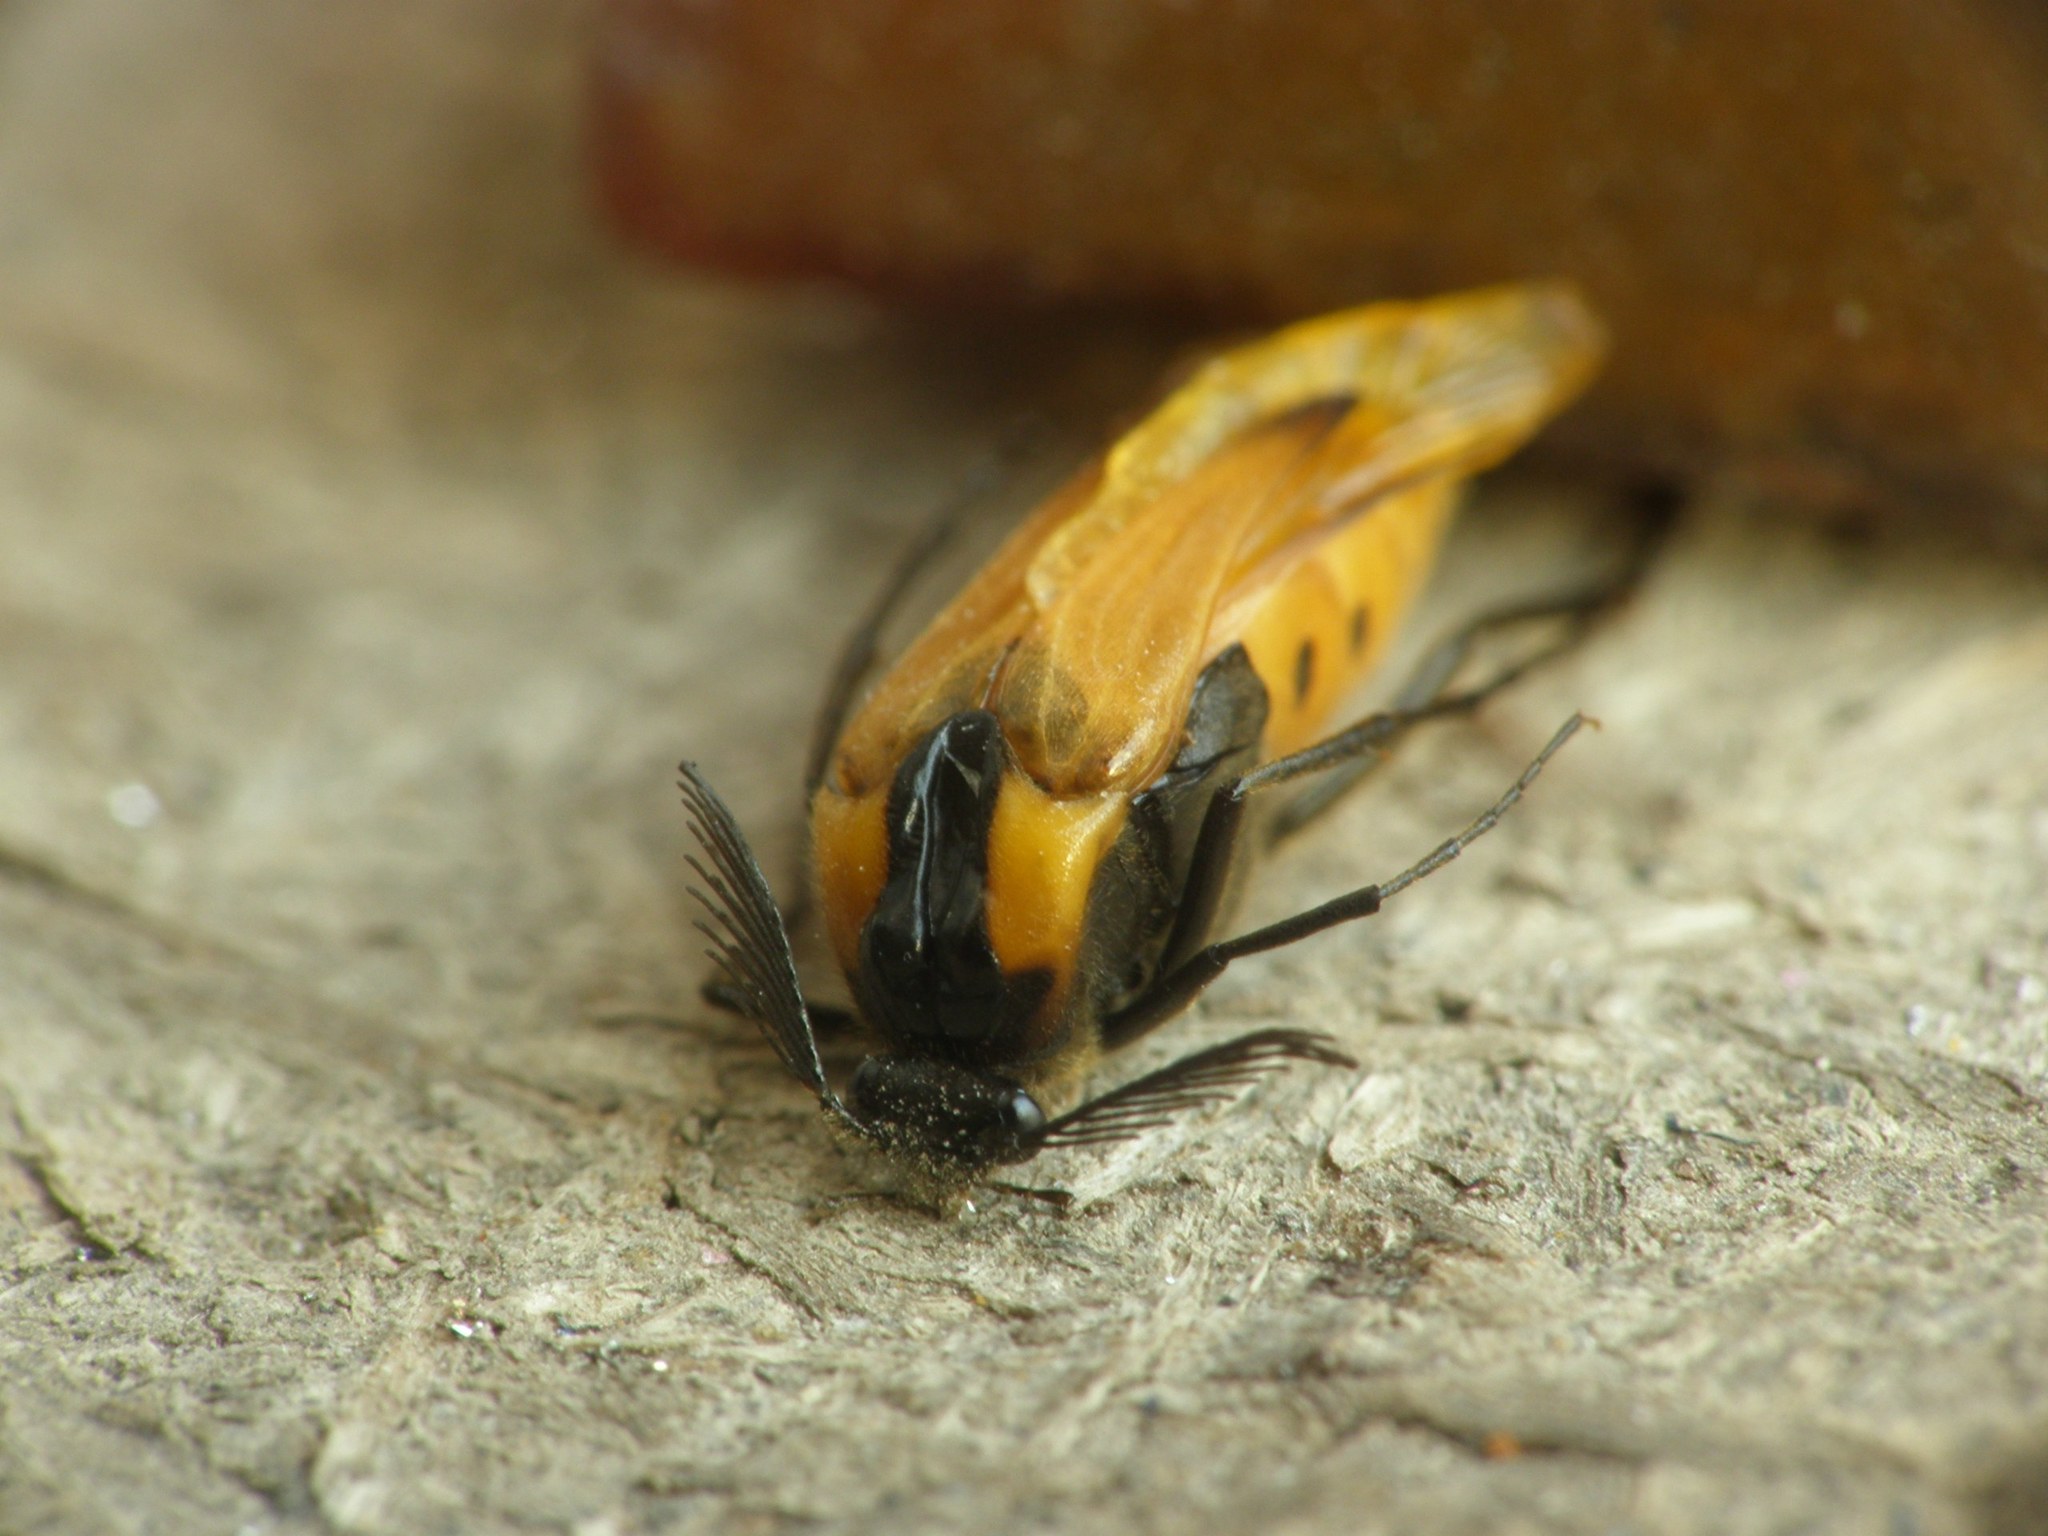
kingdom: Animalia
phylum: Arthropoda
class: Insecta
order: Coleoptera
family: Ripiphoridae
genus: Metoecus
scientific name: Metoecus paradoxus
